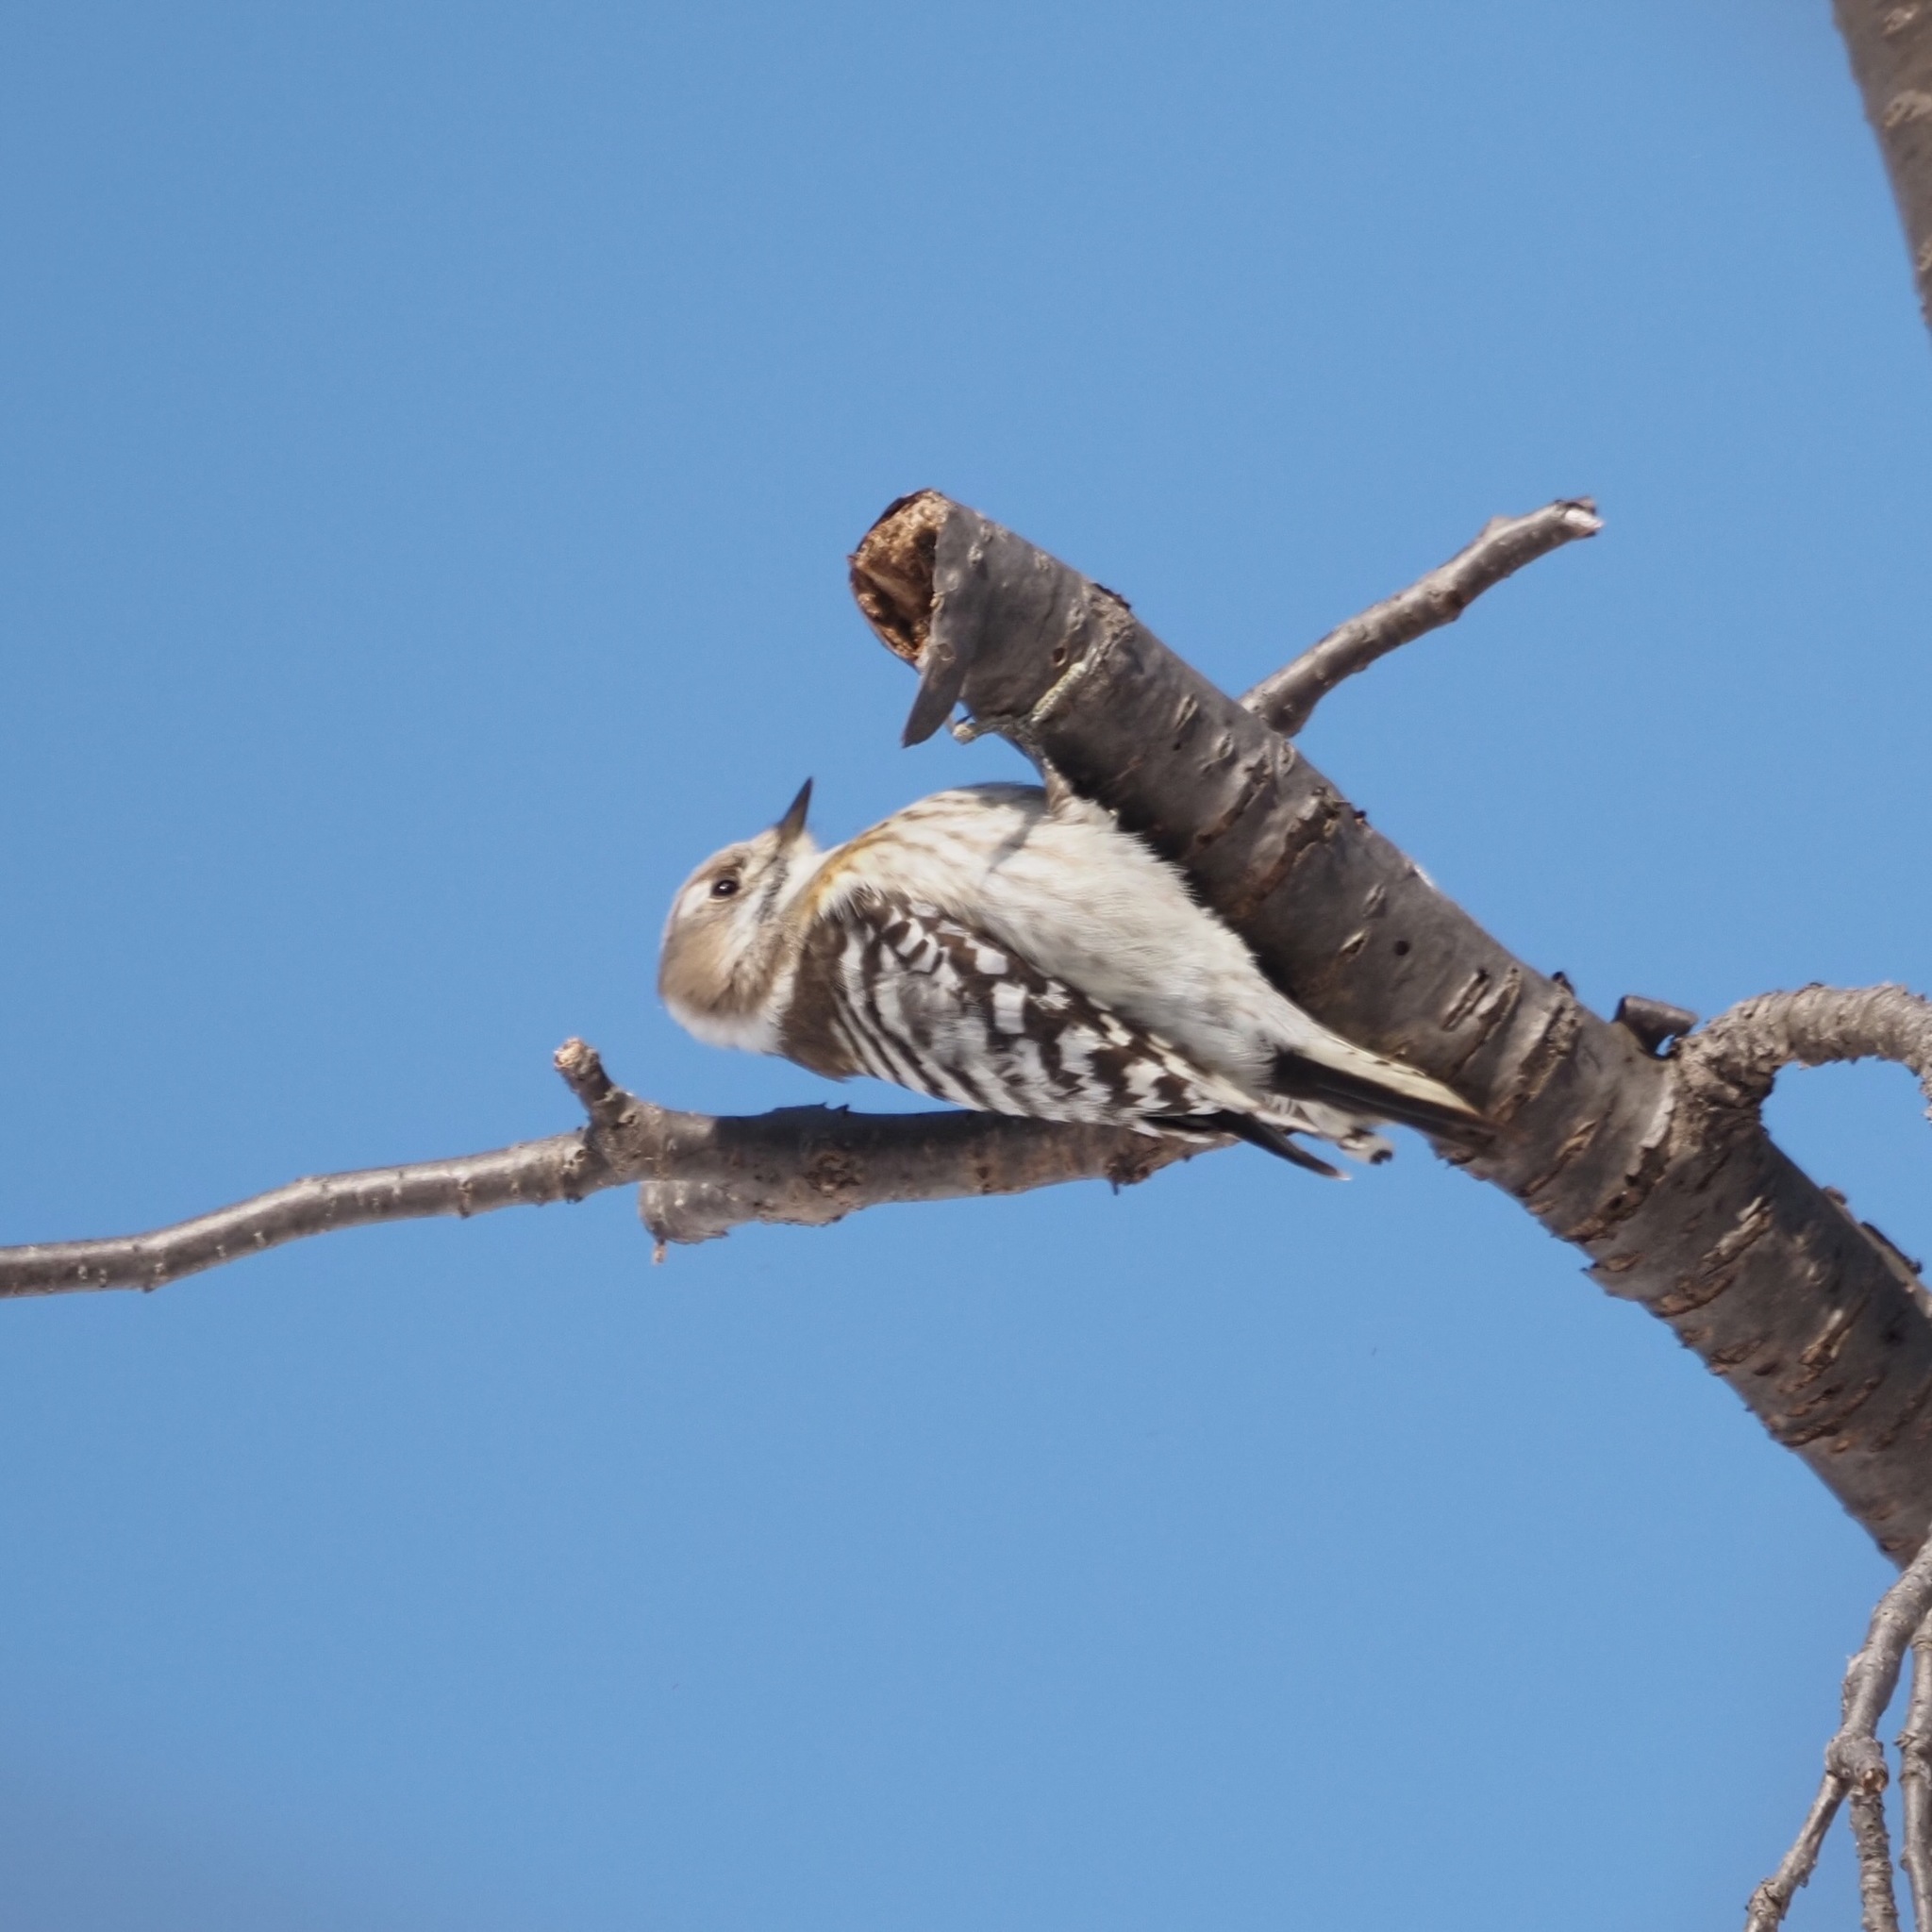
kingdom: Animalia
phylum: Chordata
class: Aves
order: Piciformes
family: Picidae
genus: Yungipicus
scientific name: Yungipicus kizuki
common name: Japanese pygmy woodpecker
